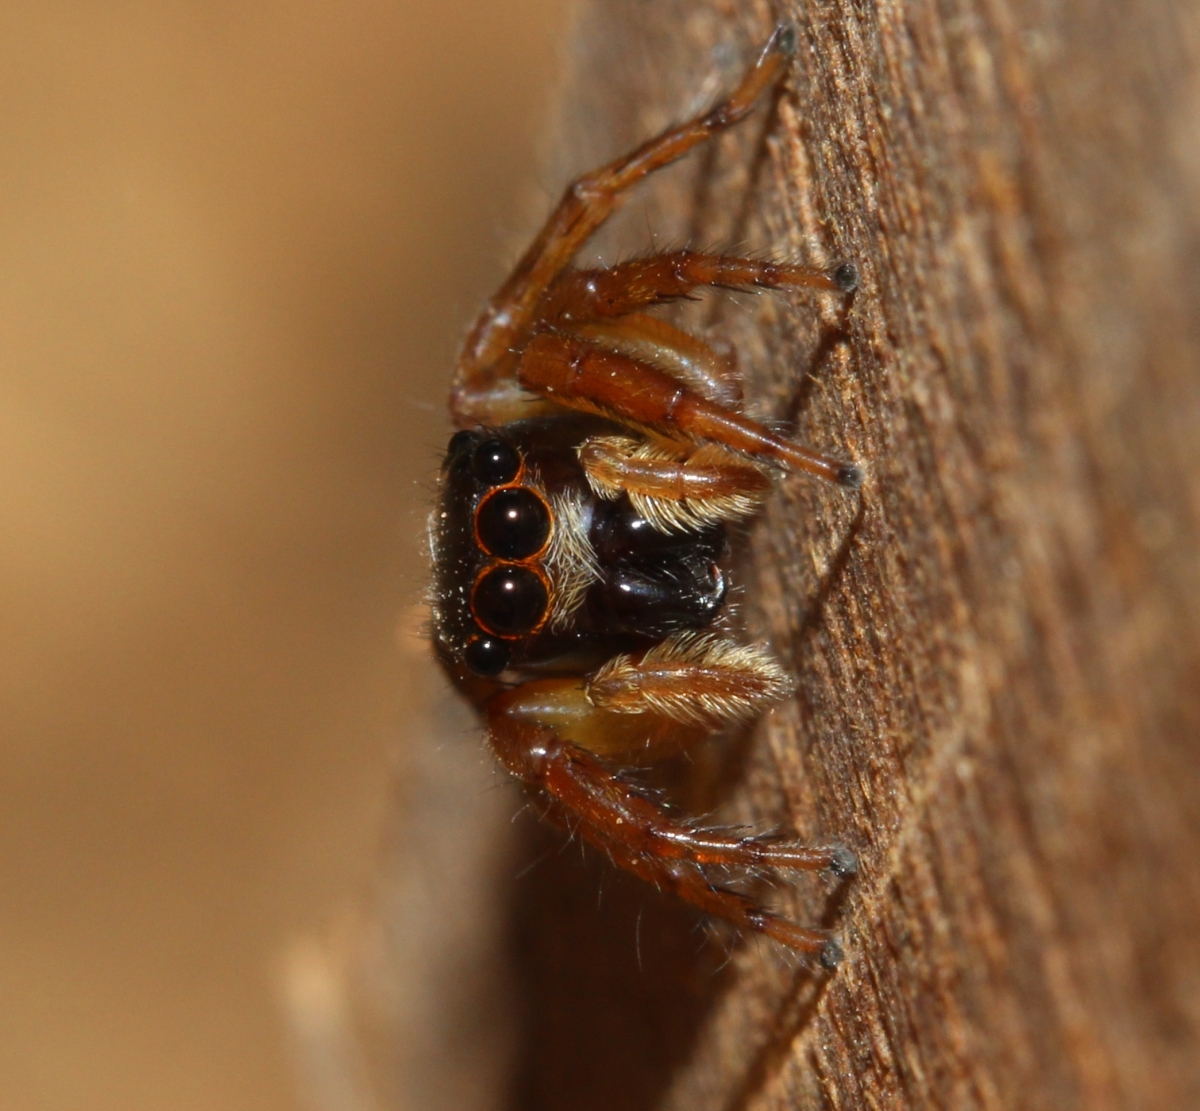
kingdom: Animalia
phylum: Arthropoda
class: Arachnida
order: Araneae
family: Salticidae
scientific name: Salticidae
